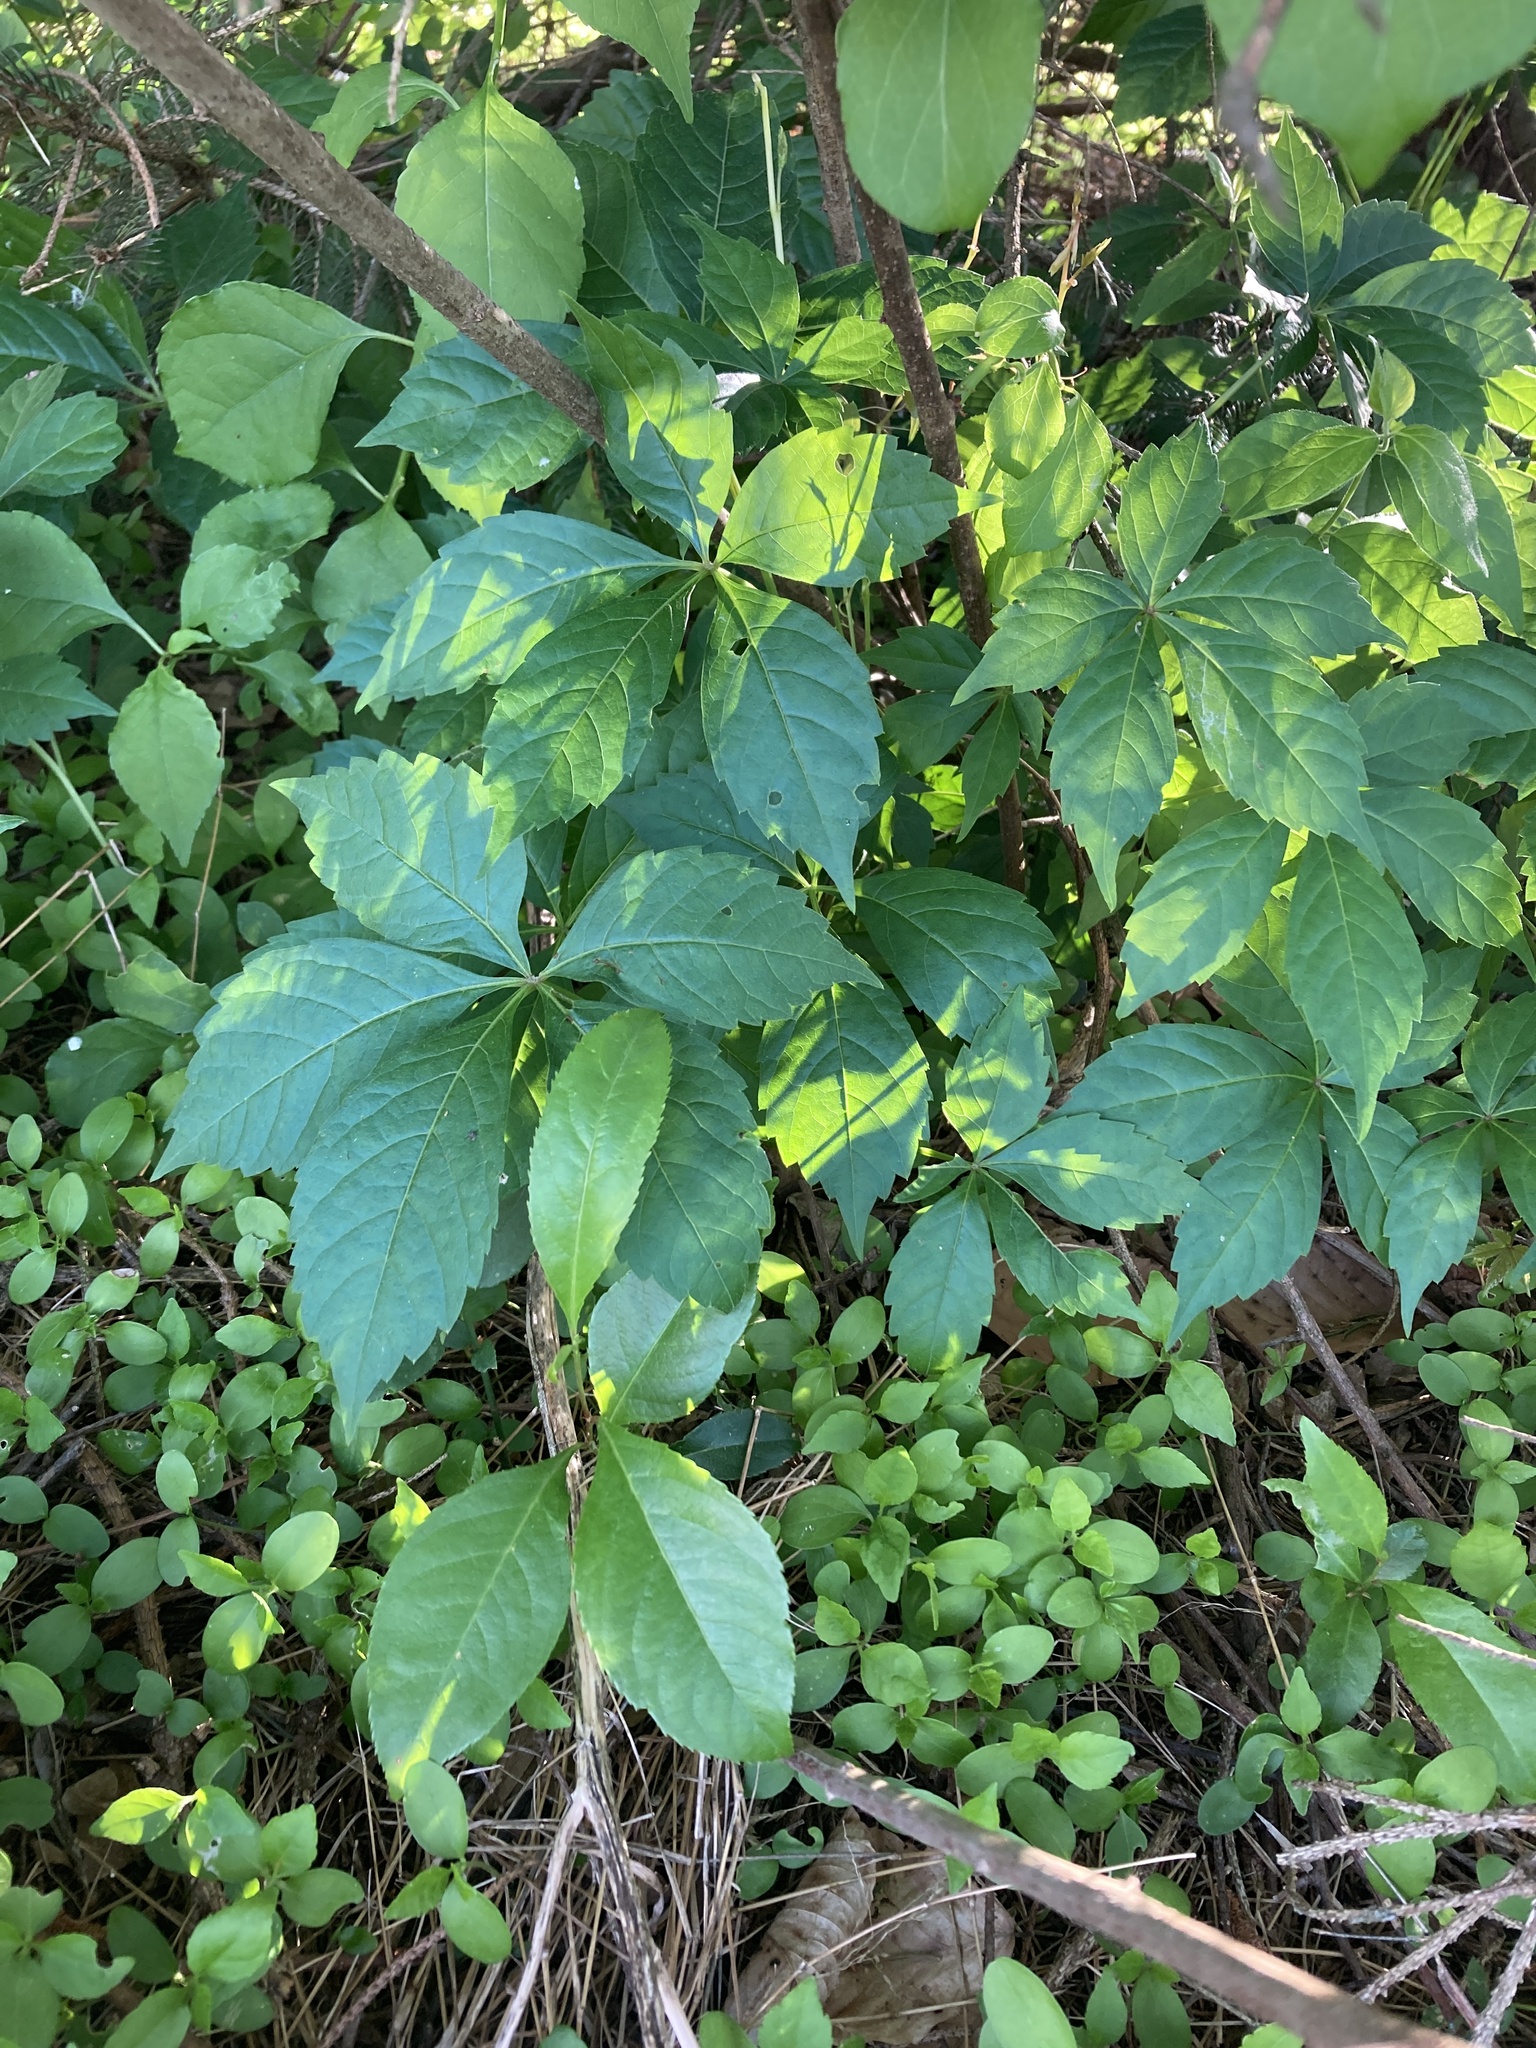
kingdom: Plantae
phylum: Tracheophyta
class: Magnoliopsida
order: Vitales
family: Vitaceae
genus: Parthenocissus
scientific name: Parthenocissus quinquefolia
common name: Virginia-creeper
